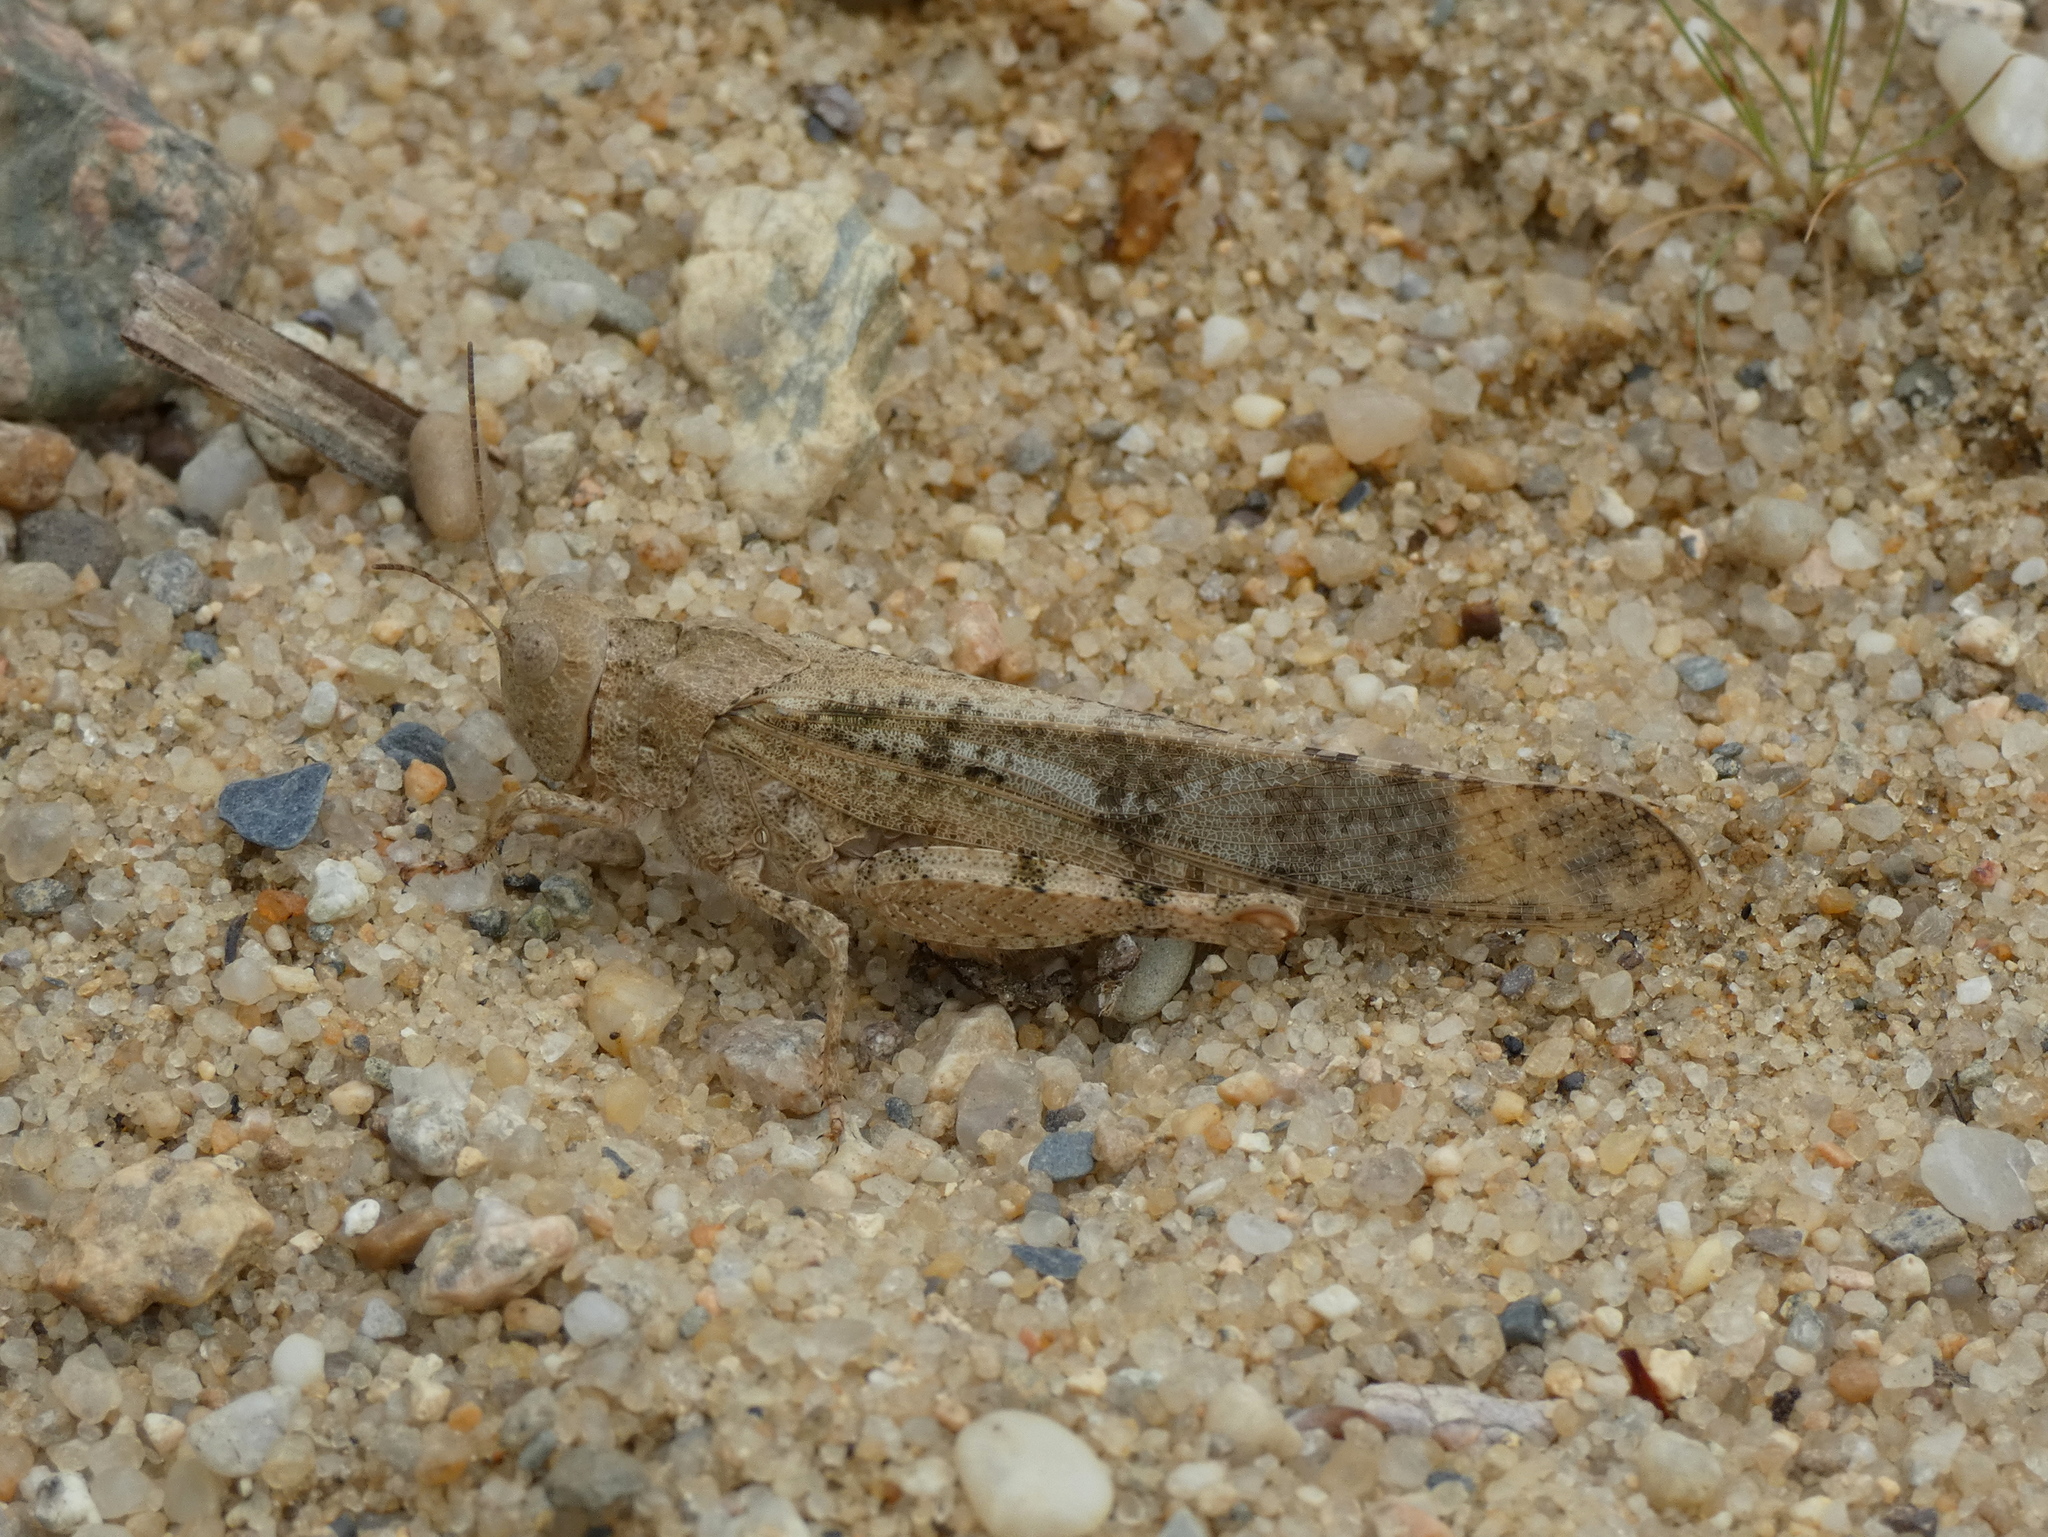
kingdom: Animalia
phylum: Arthropoda
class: Insecta
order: Orthoptera
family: Acrididae
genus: Dissosteira
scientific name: Dissosteira carolina
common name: Carolina grasshopper
